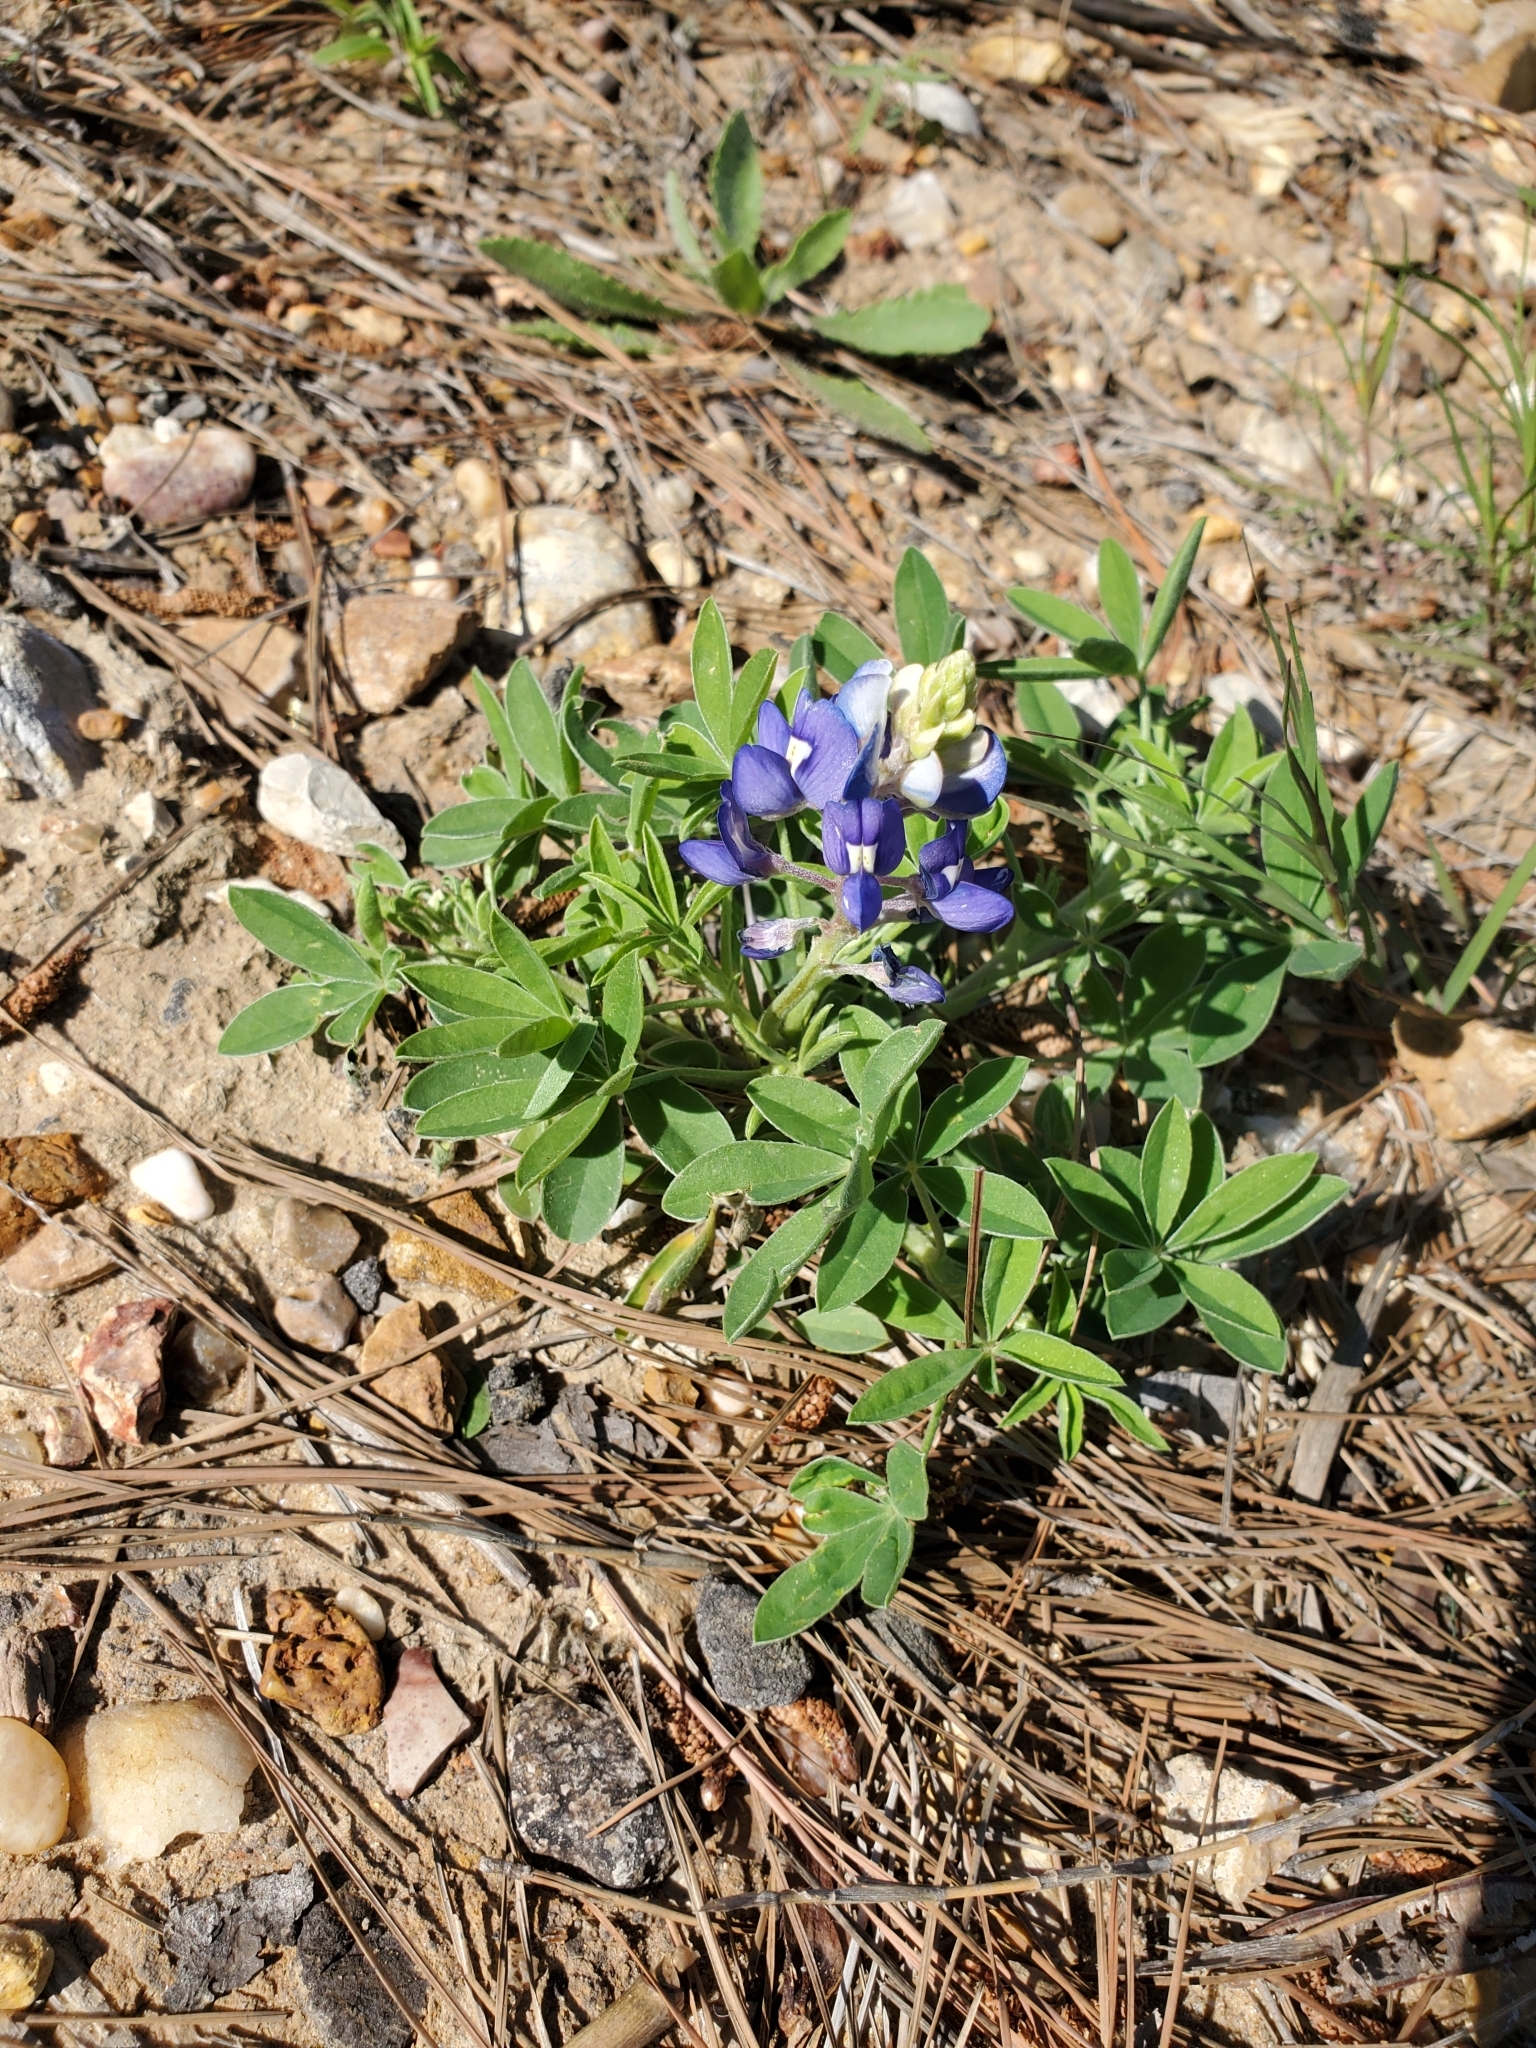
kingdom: Plantae
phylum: Tracheophyta
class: Magnoliopsida
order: Fabales
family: Fabaceae
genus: Lupinus
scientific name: Lupinus texensis
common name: Texas bluebonnet
